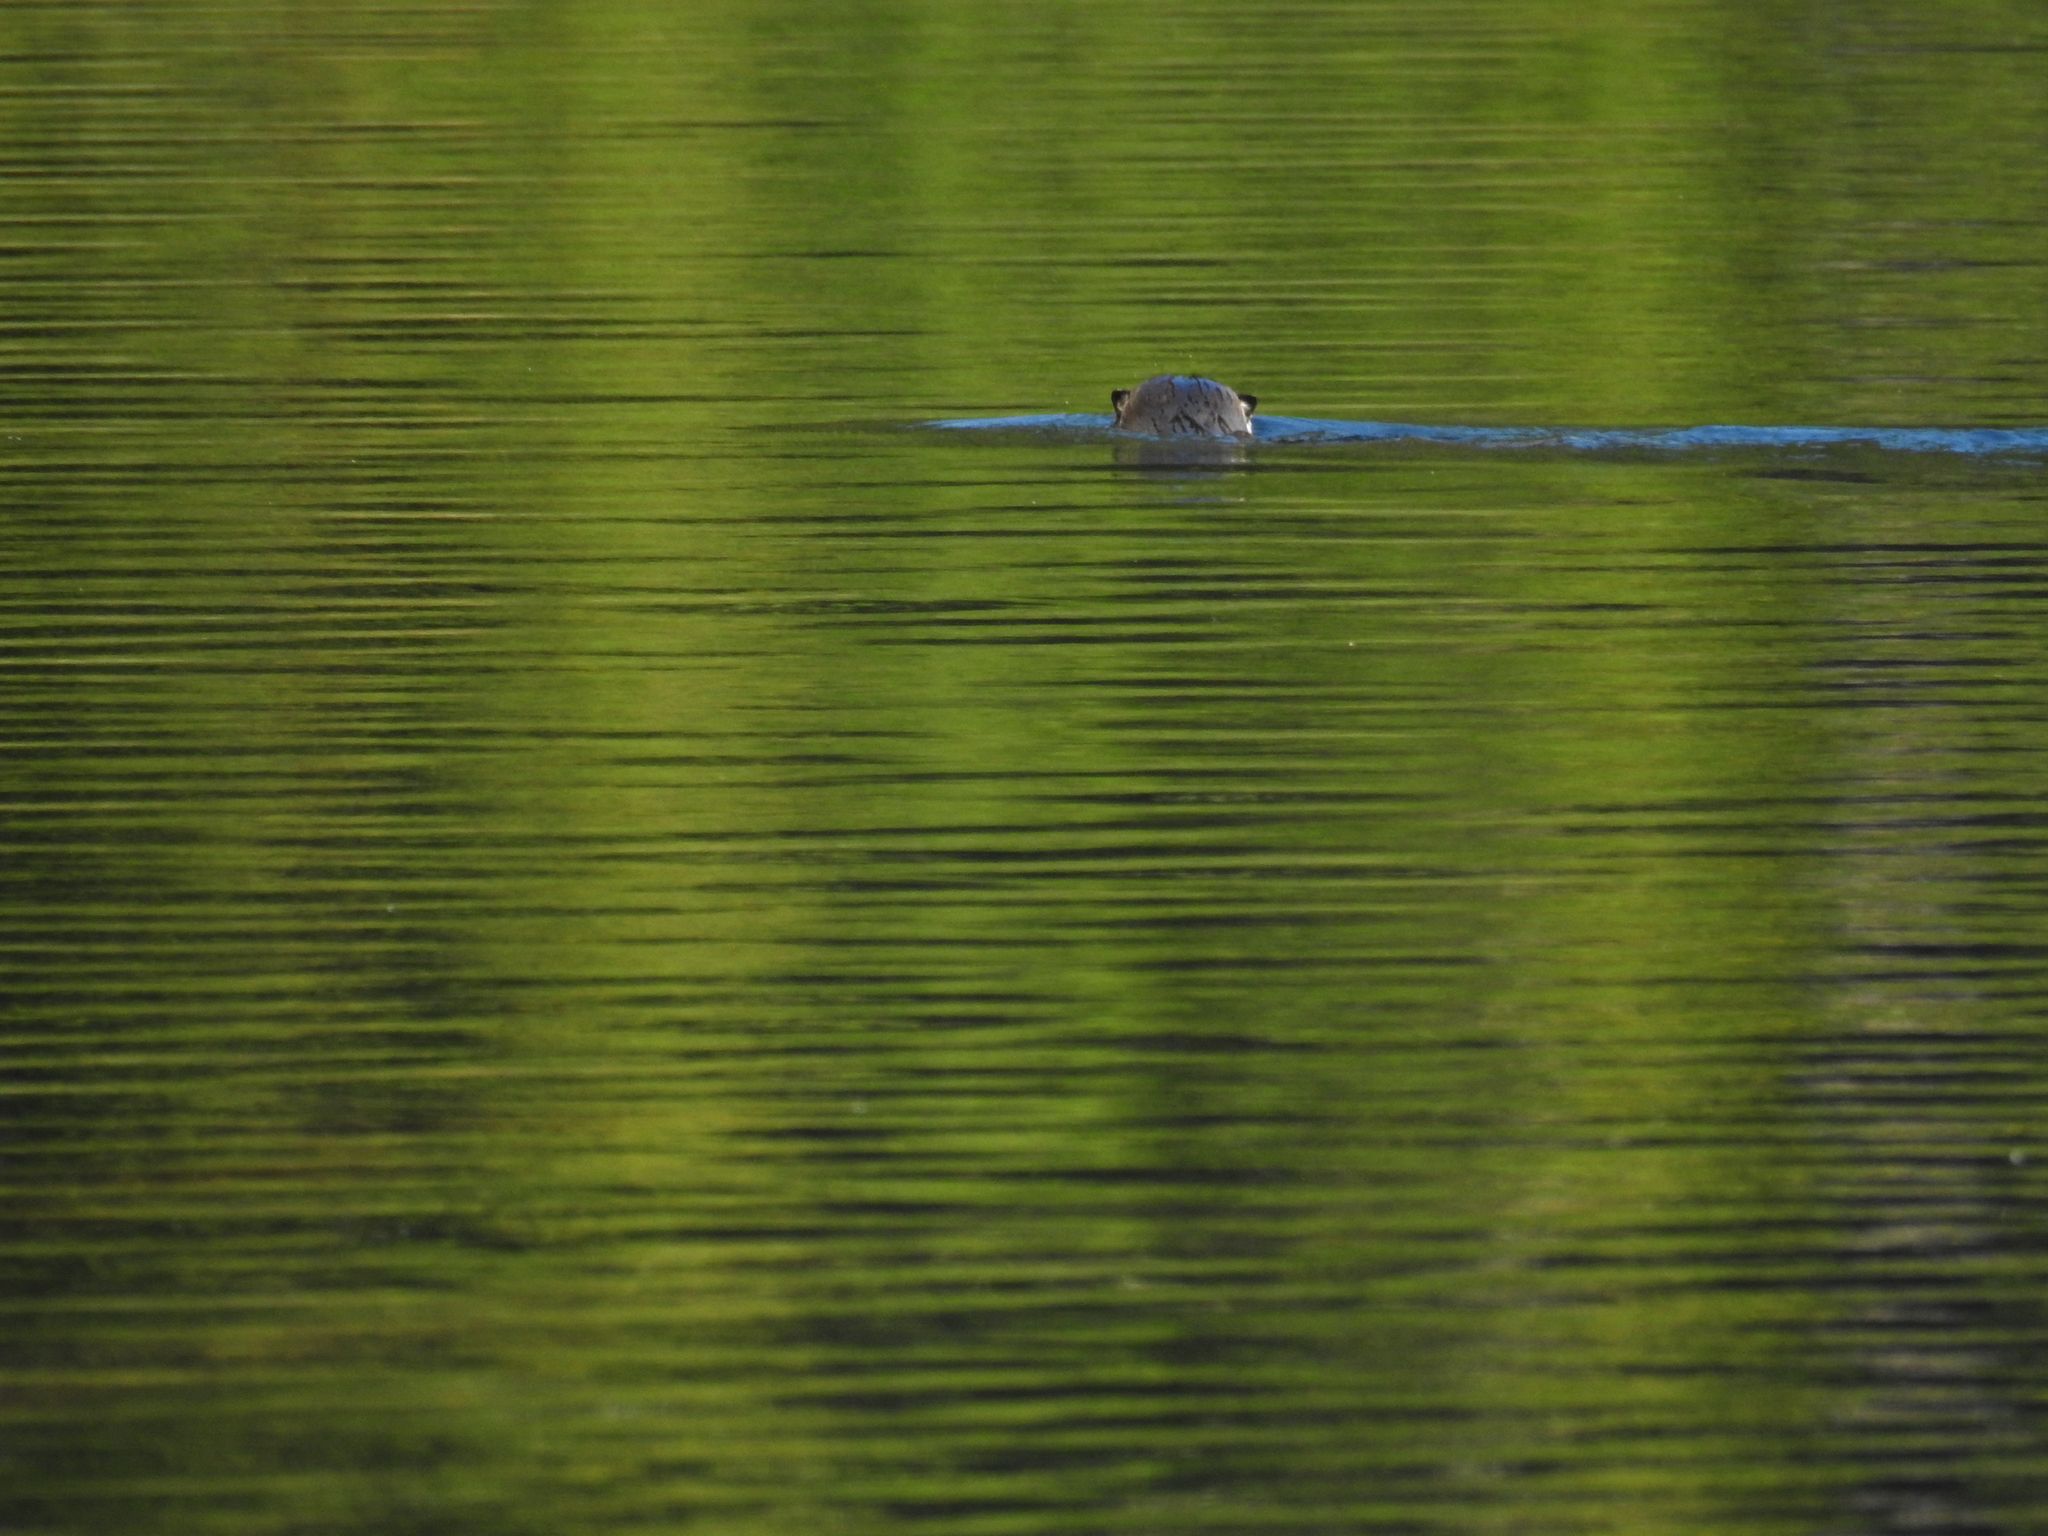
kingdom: Animalia
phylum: Chordata
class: Mammalia
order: Rodentia
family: Castoridae
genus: Castor
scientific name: Castor canadensis
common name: American beaver
